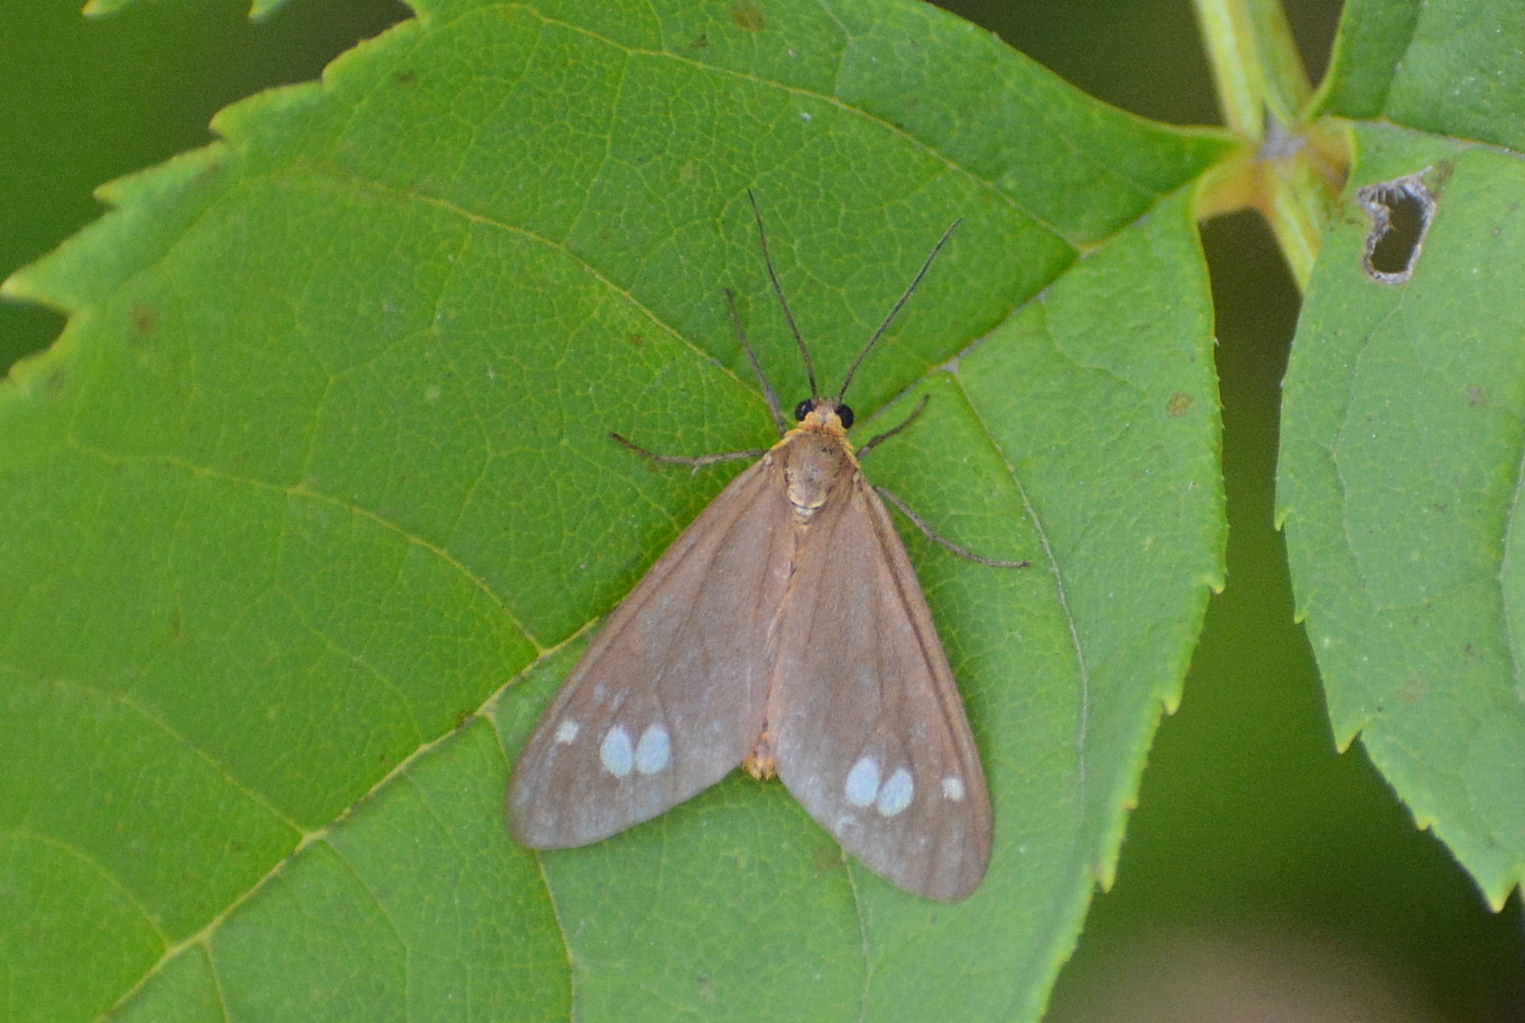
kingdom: Animalia
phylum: Arthropoda
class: Insecta
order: Lepidoptera
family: Erebidae
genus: Dysauxes
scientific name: Dysauxes ancilla
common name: The handmaid
